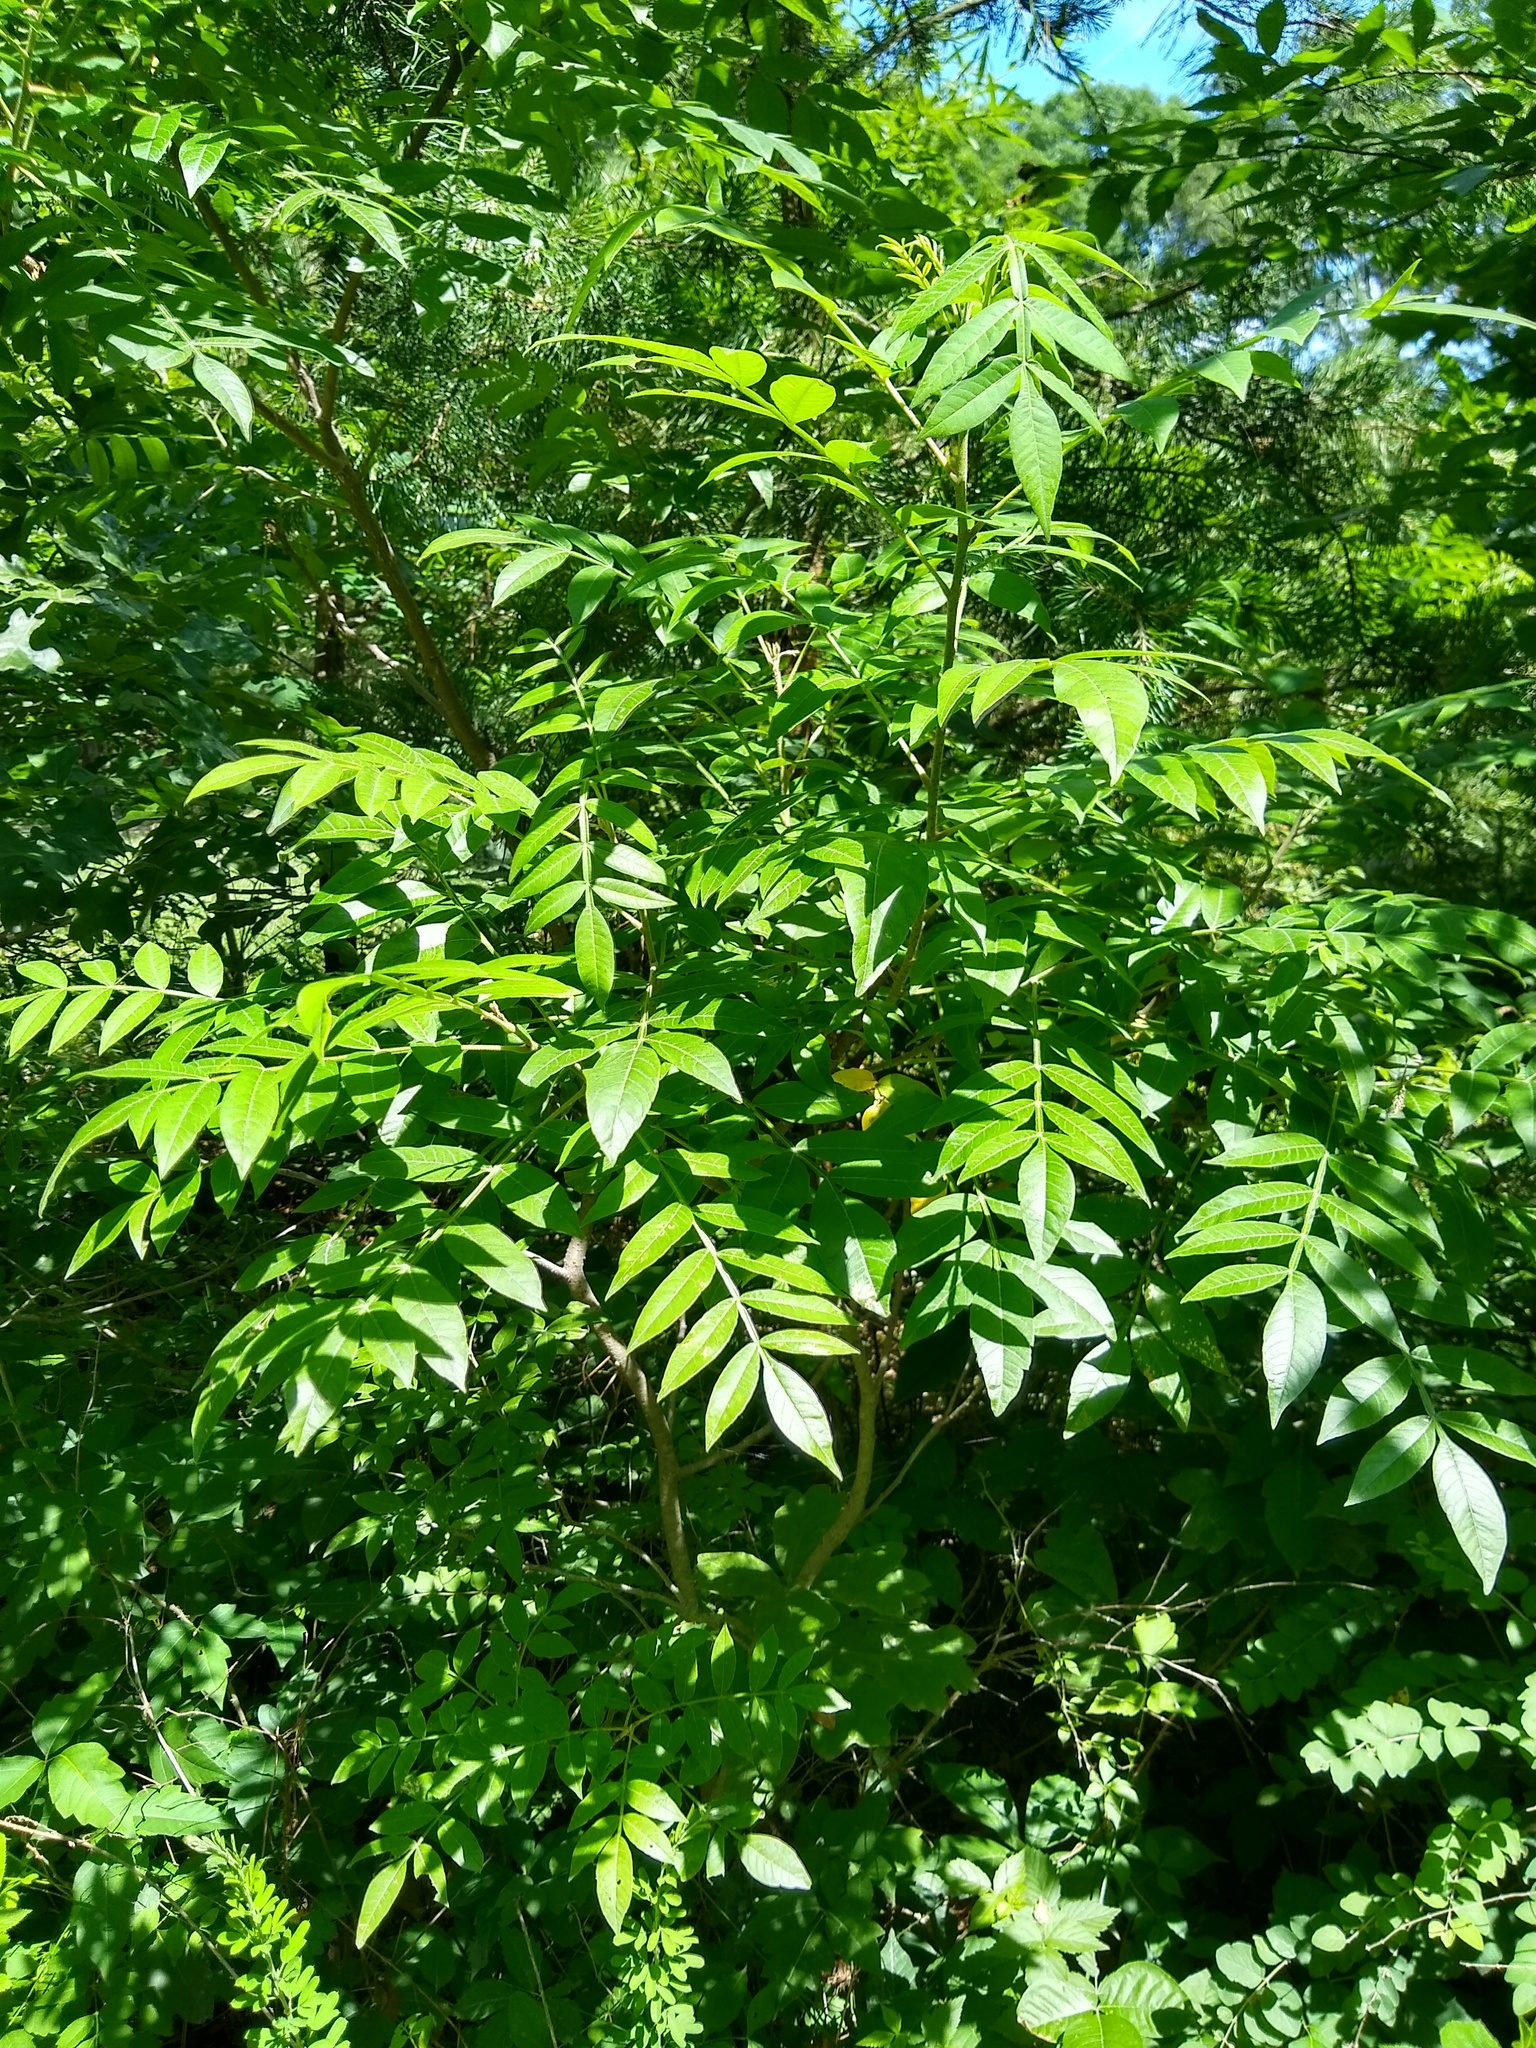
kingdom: Plantae
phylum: Tracheophyta
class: Magnoliopsida
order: Sapindales
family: Anacardiaceae
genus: Rhus
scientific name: Rhus copallina
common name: Shining sumac
